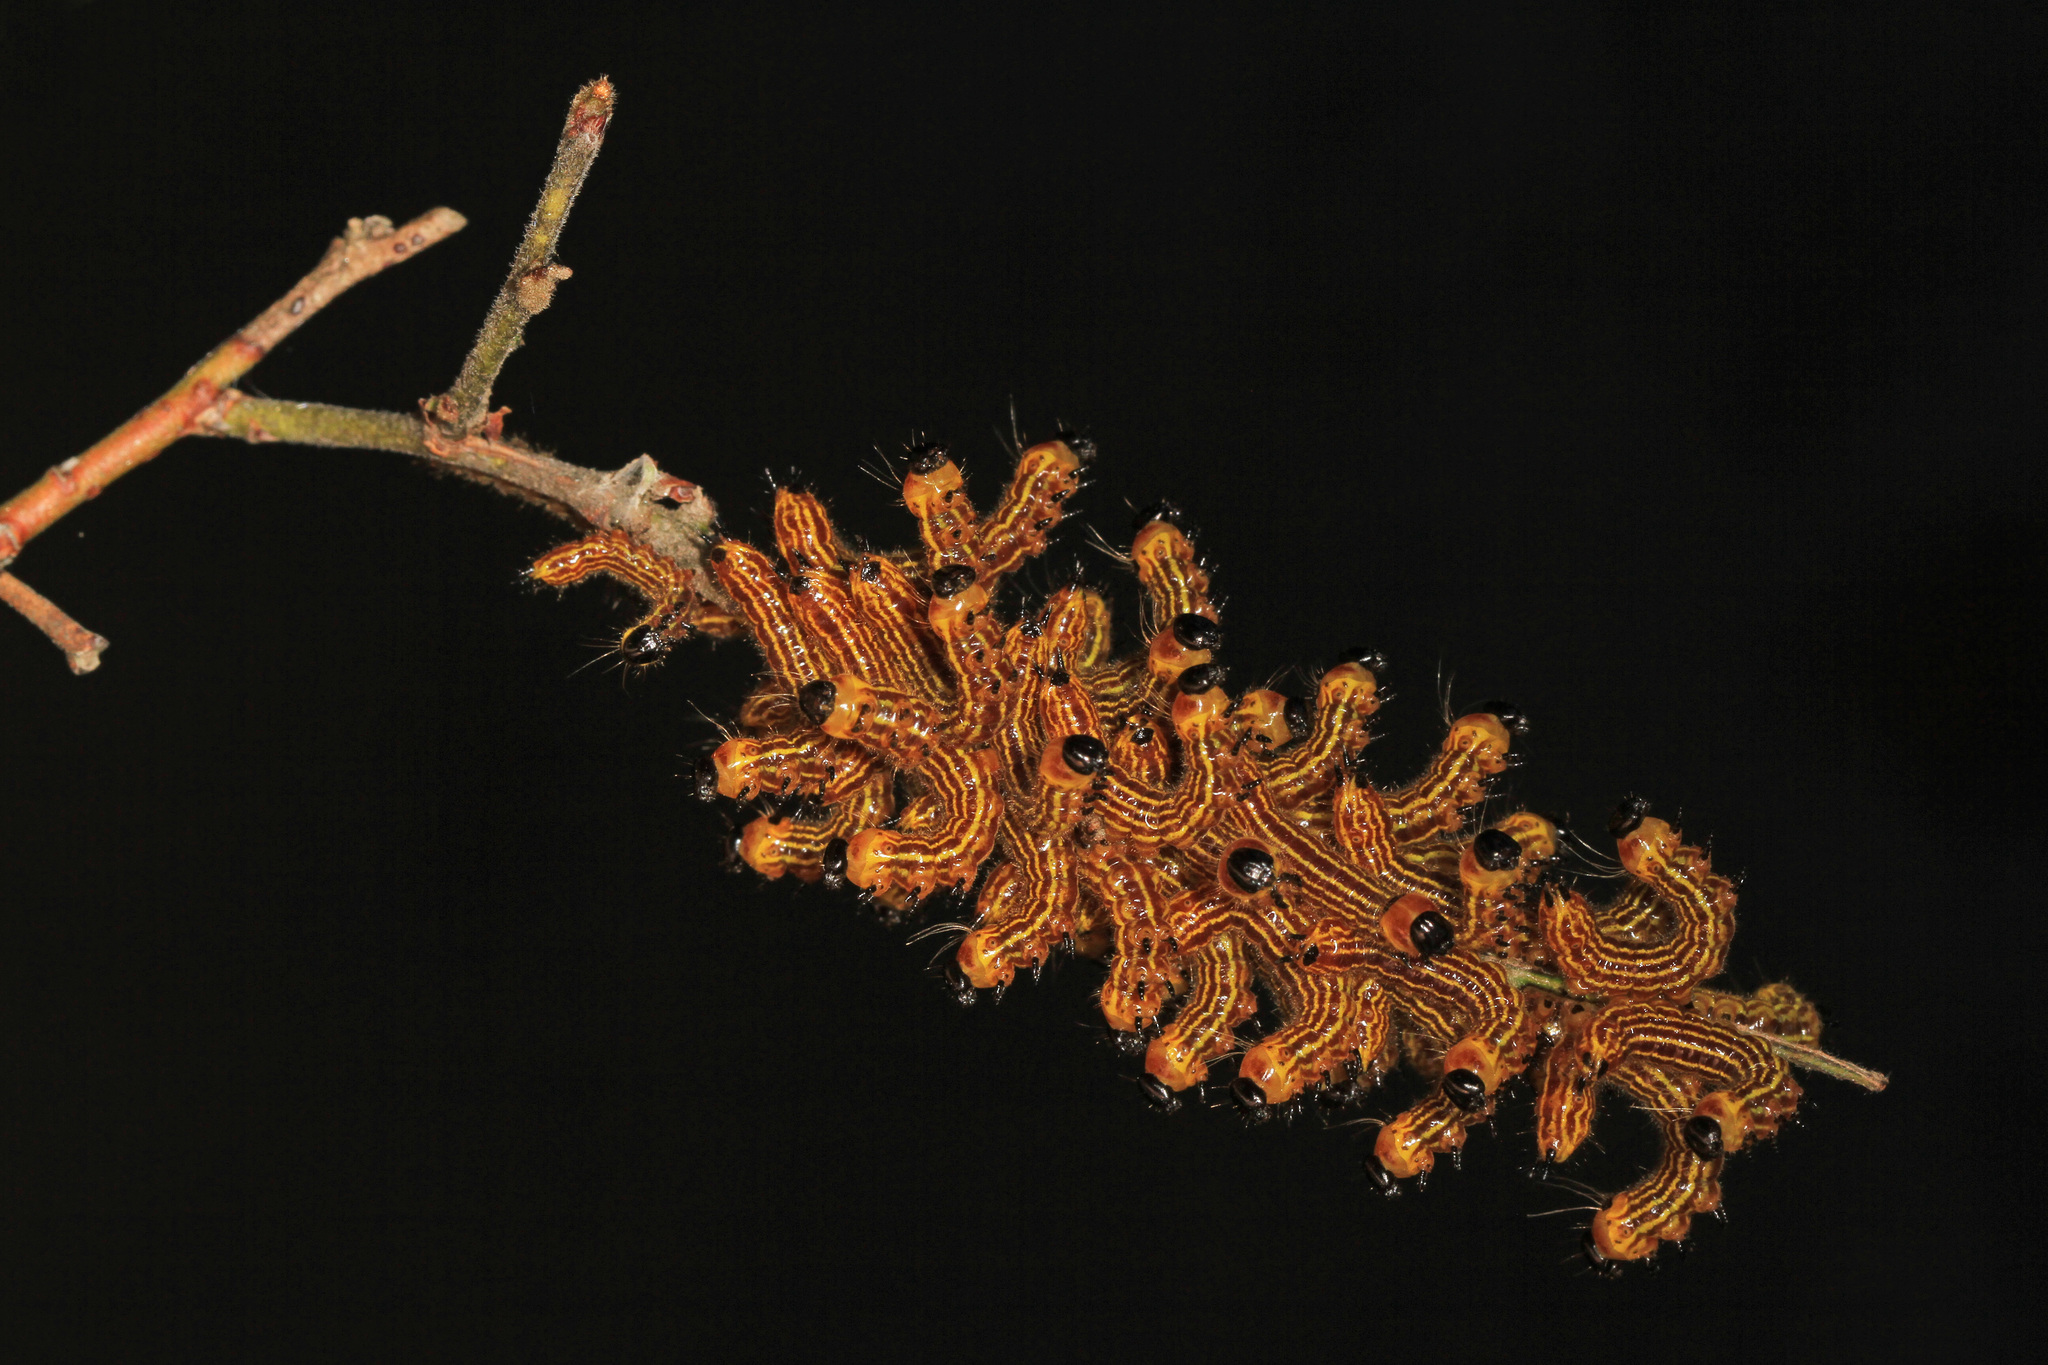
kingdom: Animalia
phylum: Arthropoda
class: Insecta
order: Lepidoptera
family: Notodontidae
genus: Datana
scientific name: Datana ministra
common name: Yellow-necked caterpillar moth
